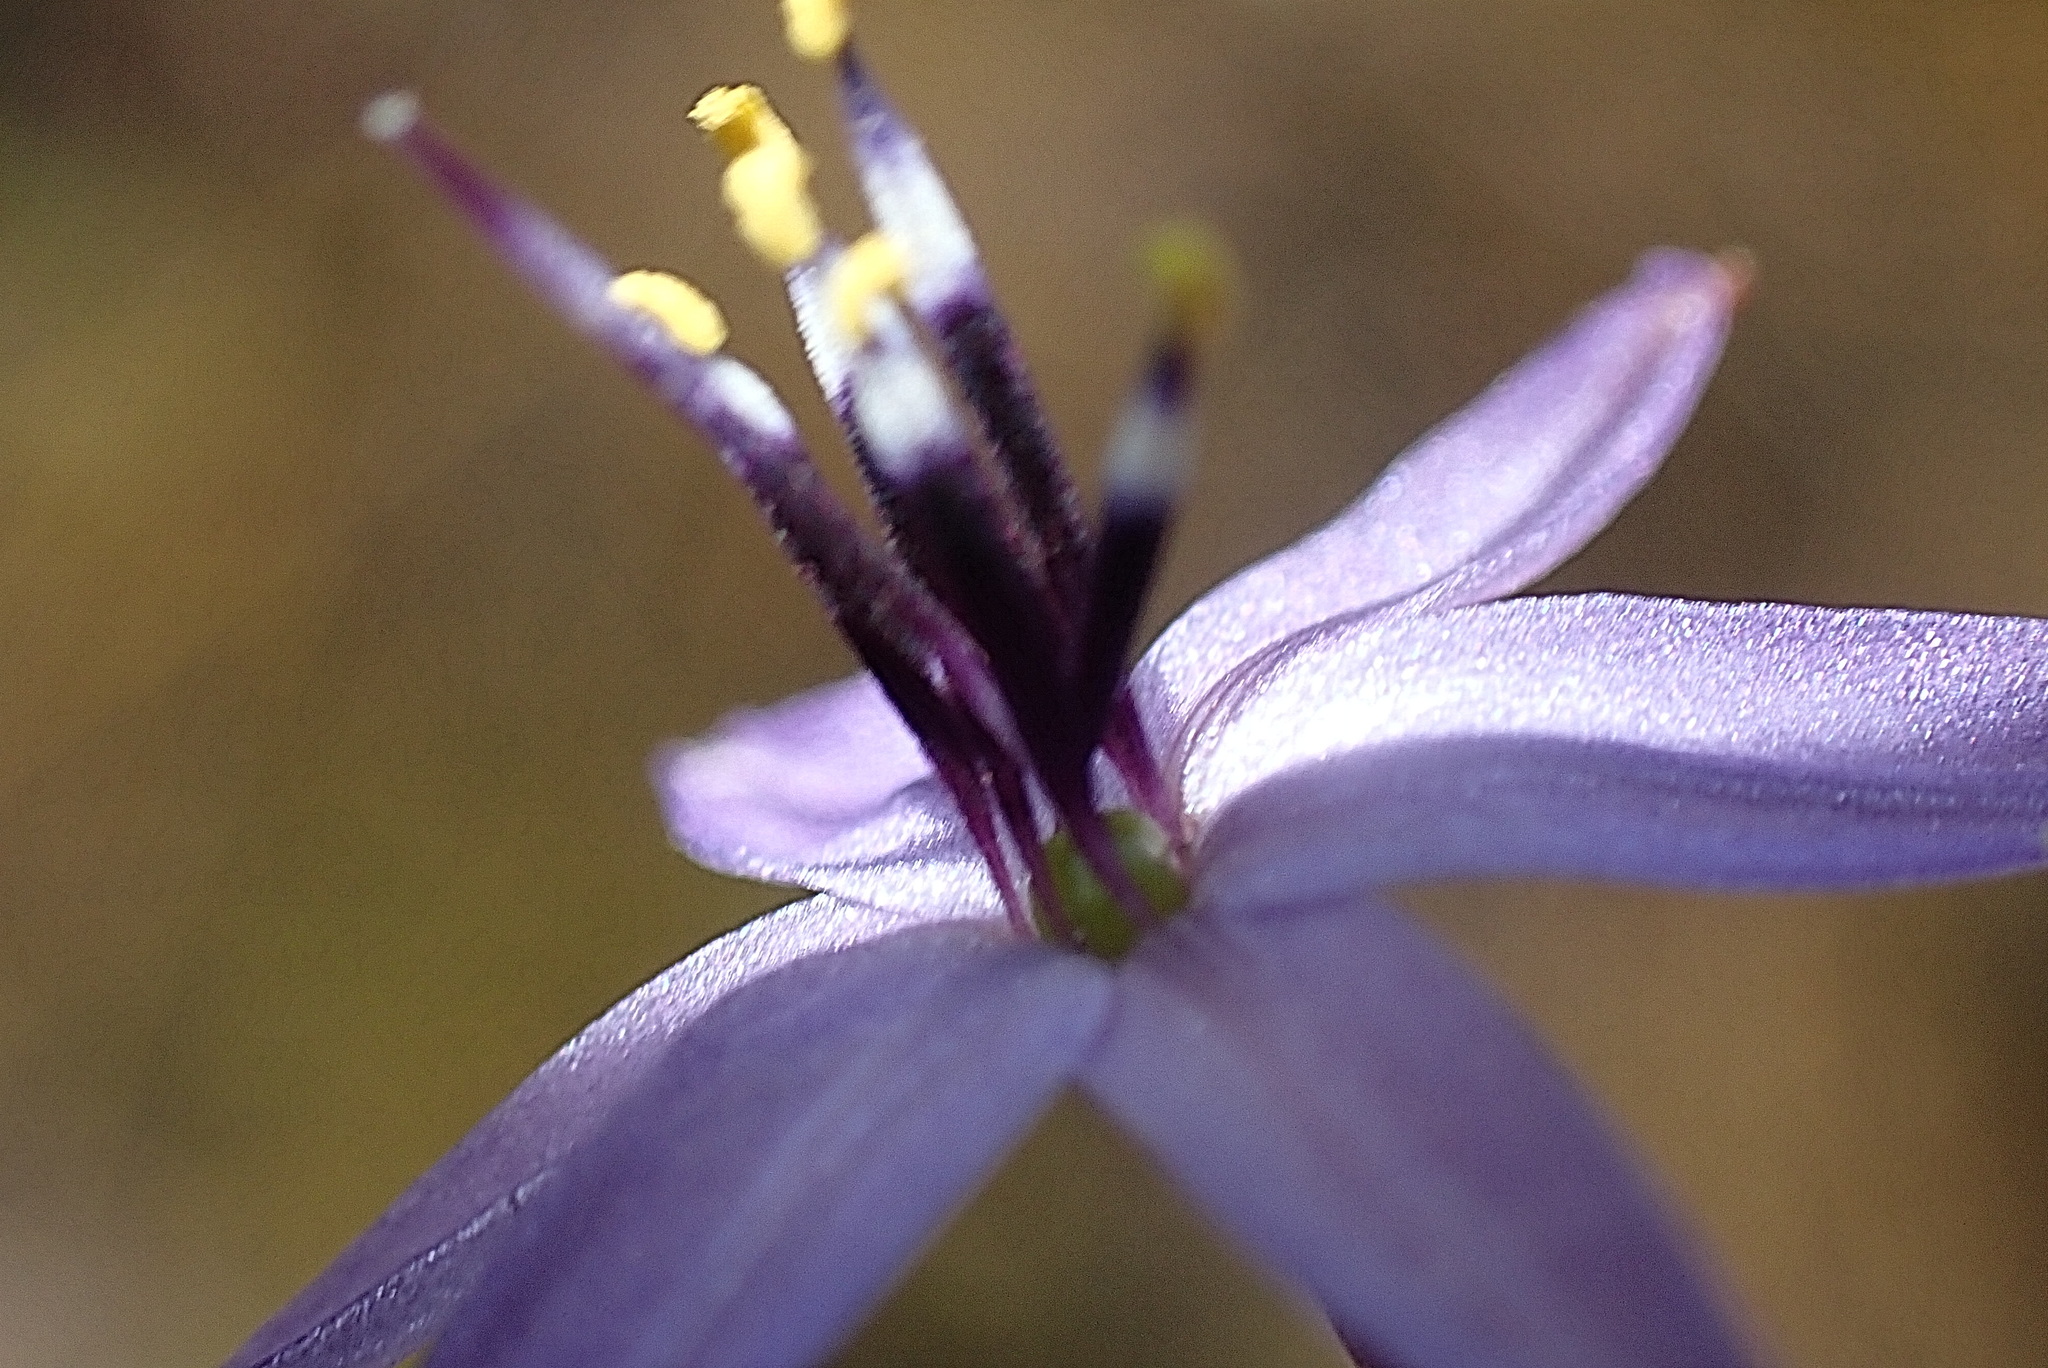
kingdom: Plantae
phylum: Tracheophyta
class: Liliopsida
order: Asparagales
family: Asphodelaceae
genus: Caesia
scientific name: Caesia contorta
